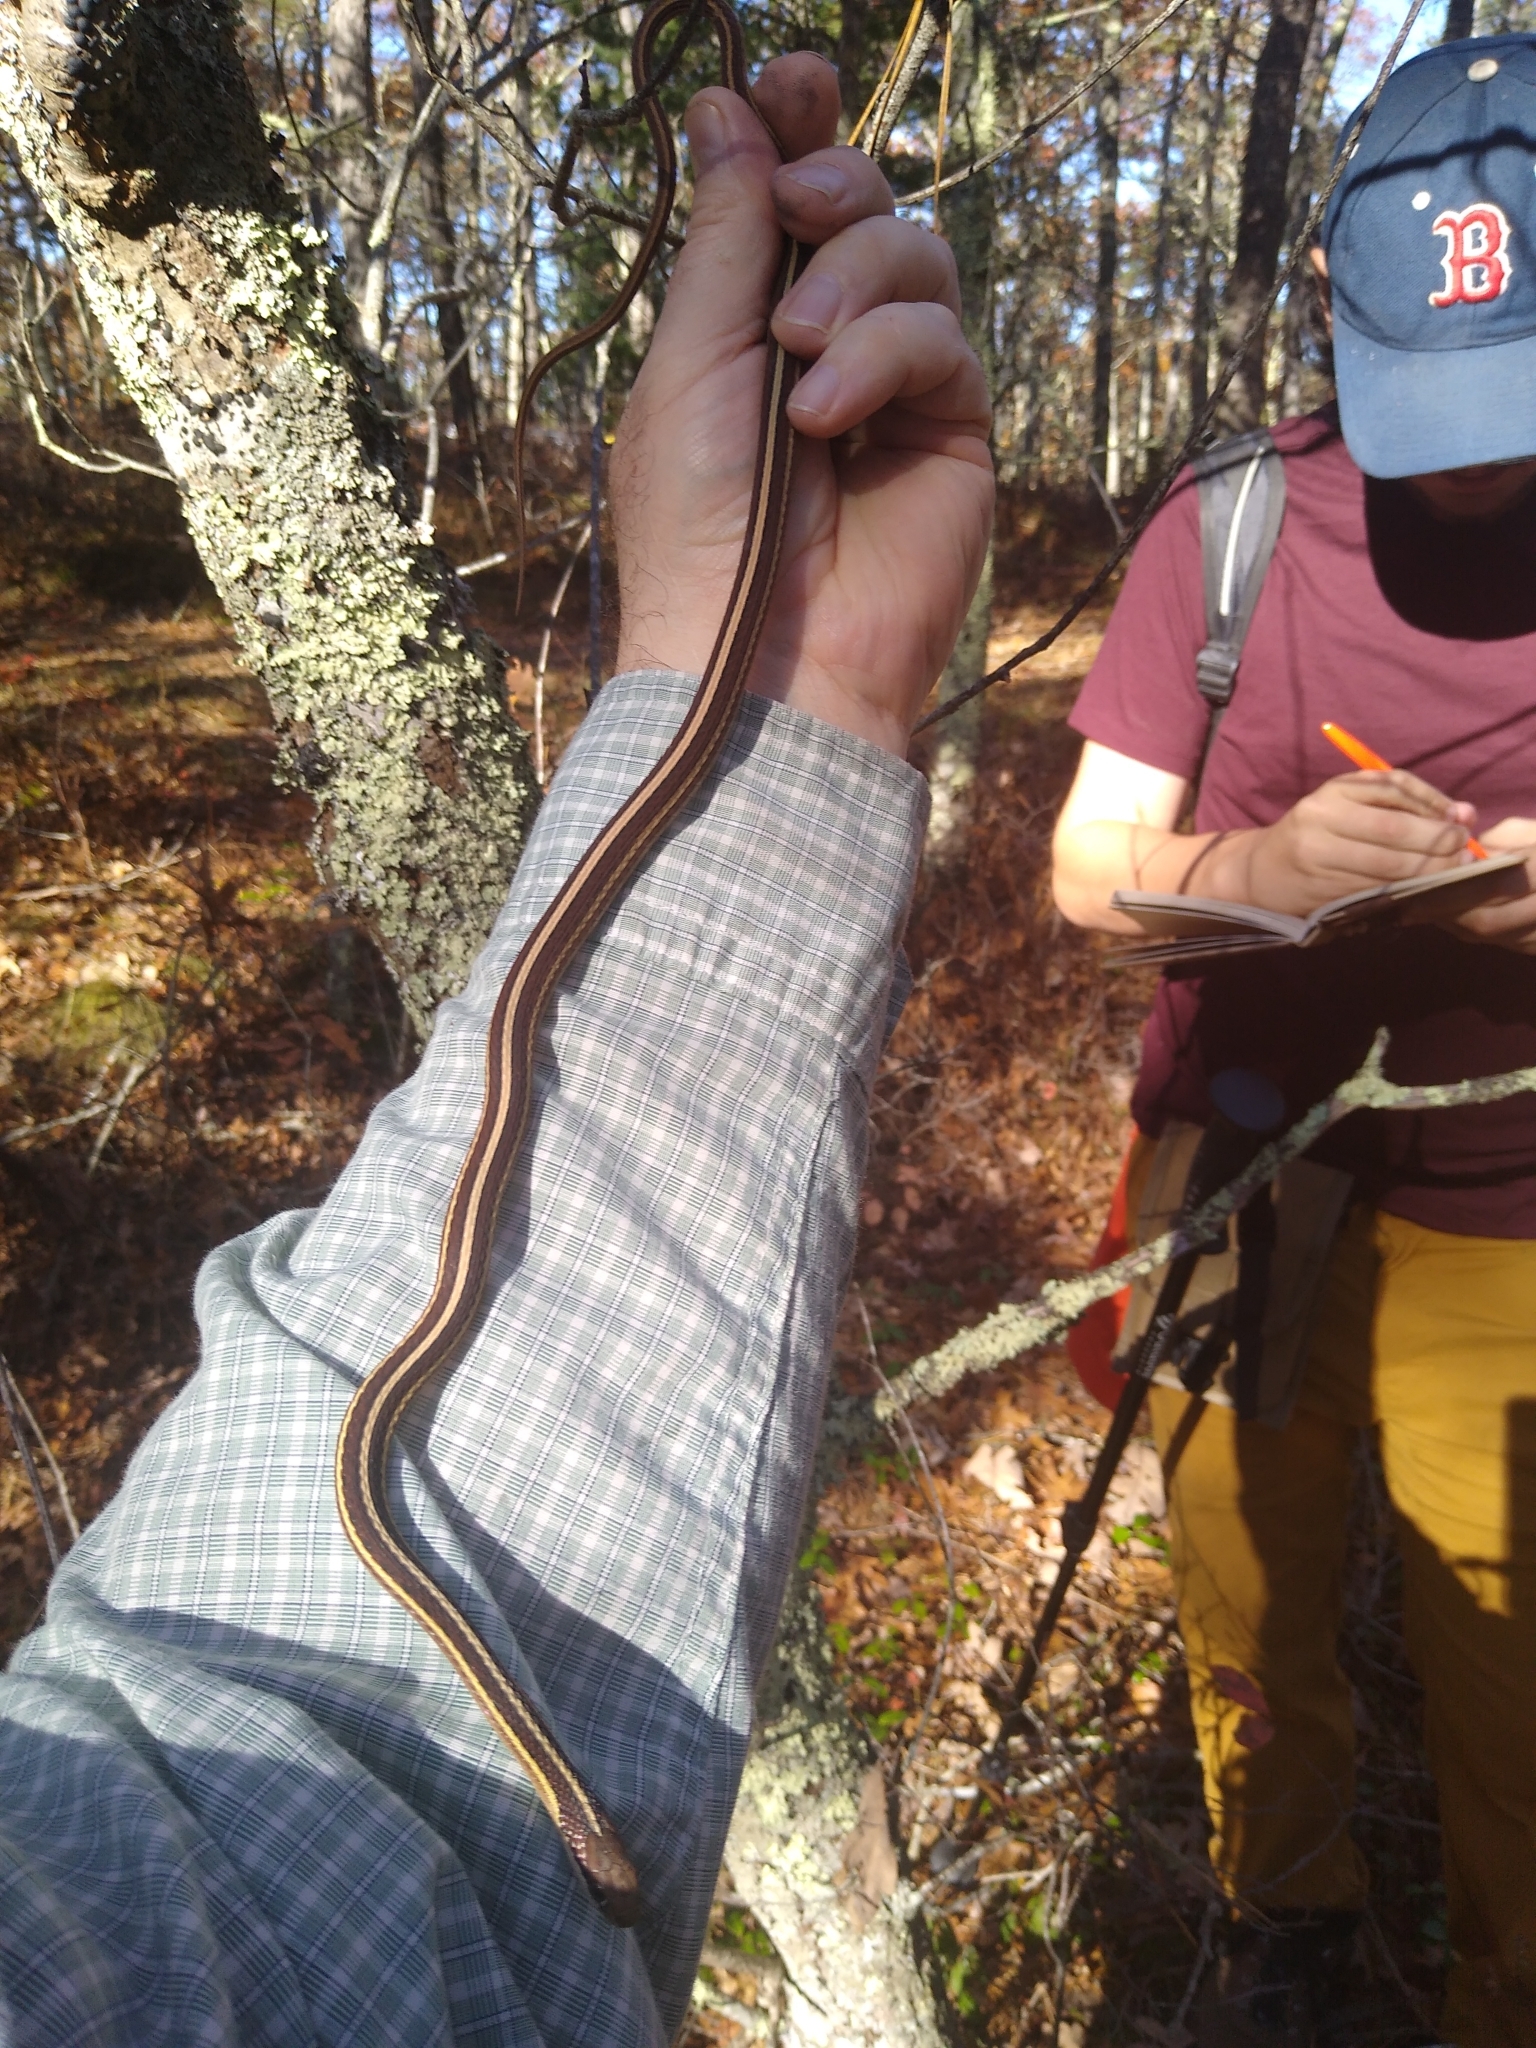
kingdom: Animalia
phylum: Chordata
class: Squamata
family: Colubridae
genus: Thamnophis
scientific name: Thamnophis saurita
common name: Eastern ribbonsnake
